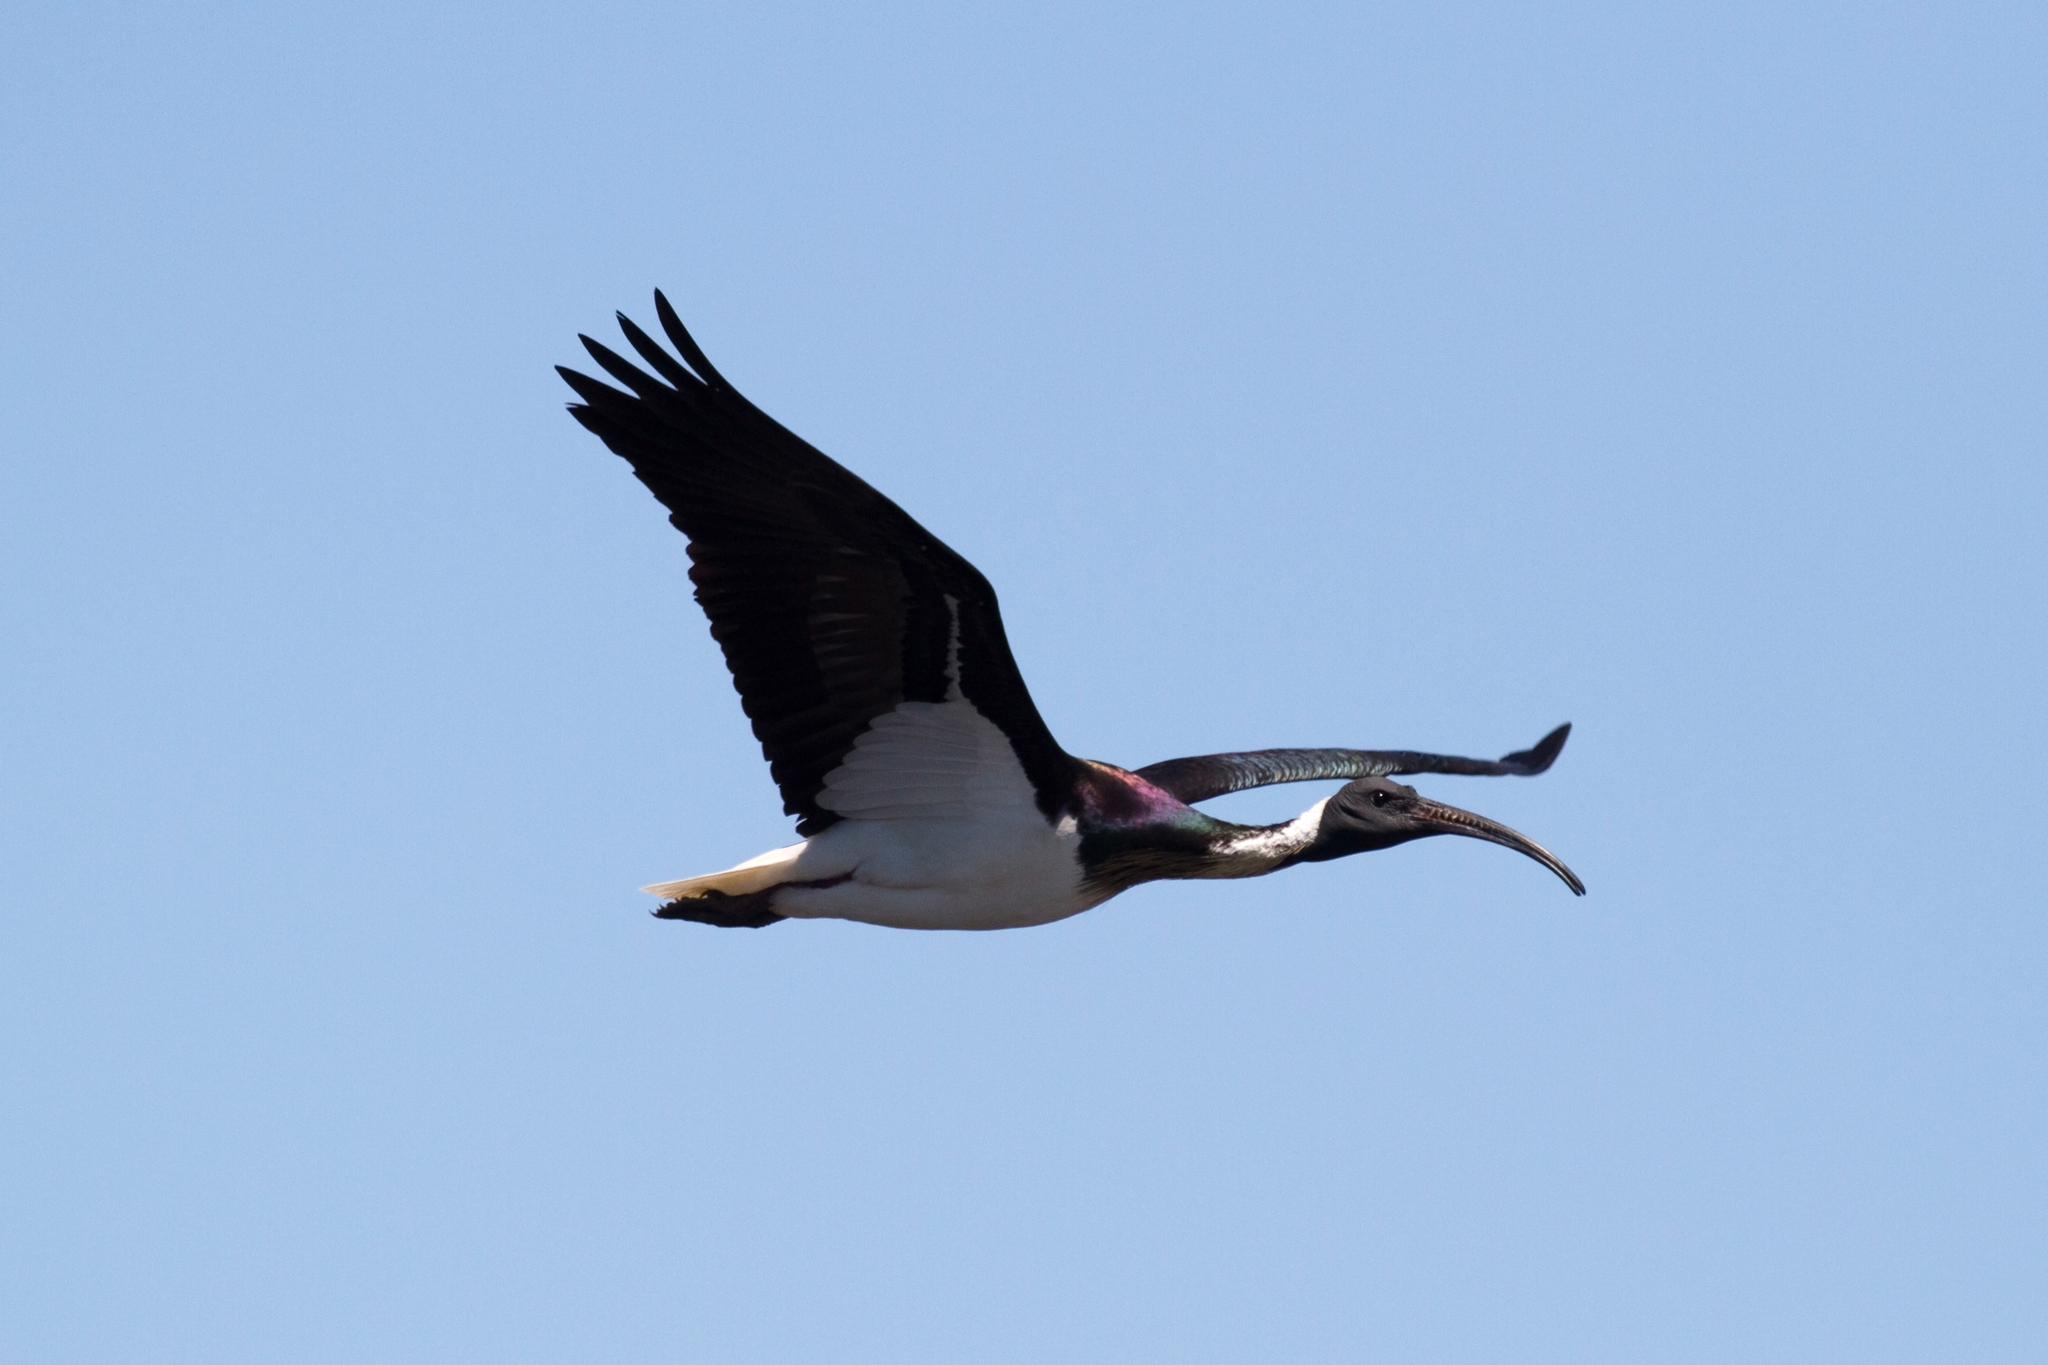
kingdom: Animalia
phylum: Chordata
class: Aves
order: Pelecaniformes
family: Threskiornithidae
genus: Threskiornis
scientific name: Threskiornis spinicollis
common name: Straw-necked ibis
